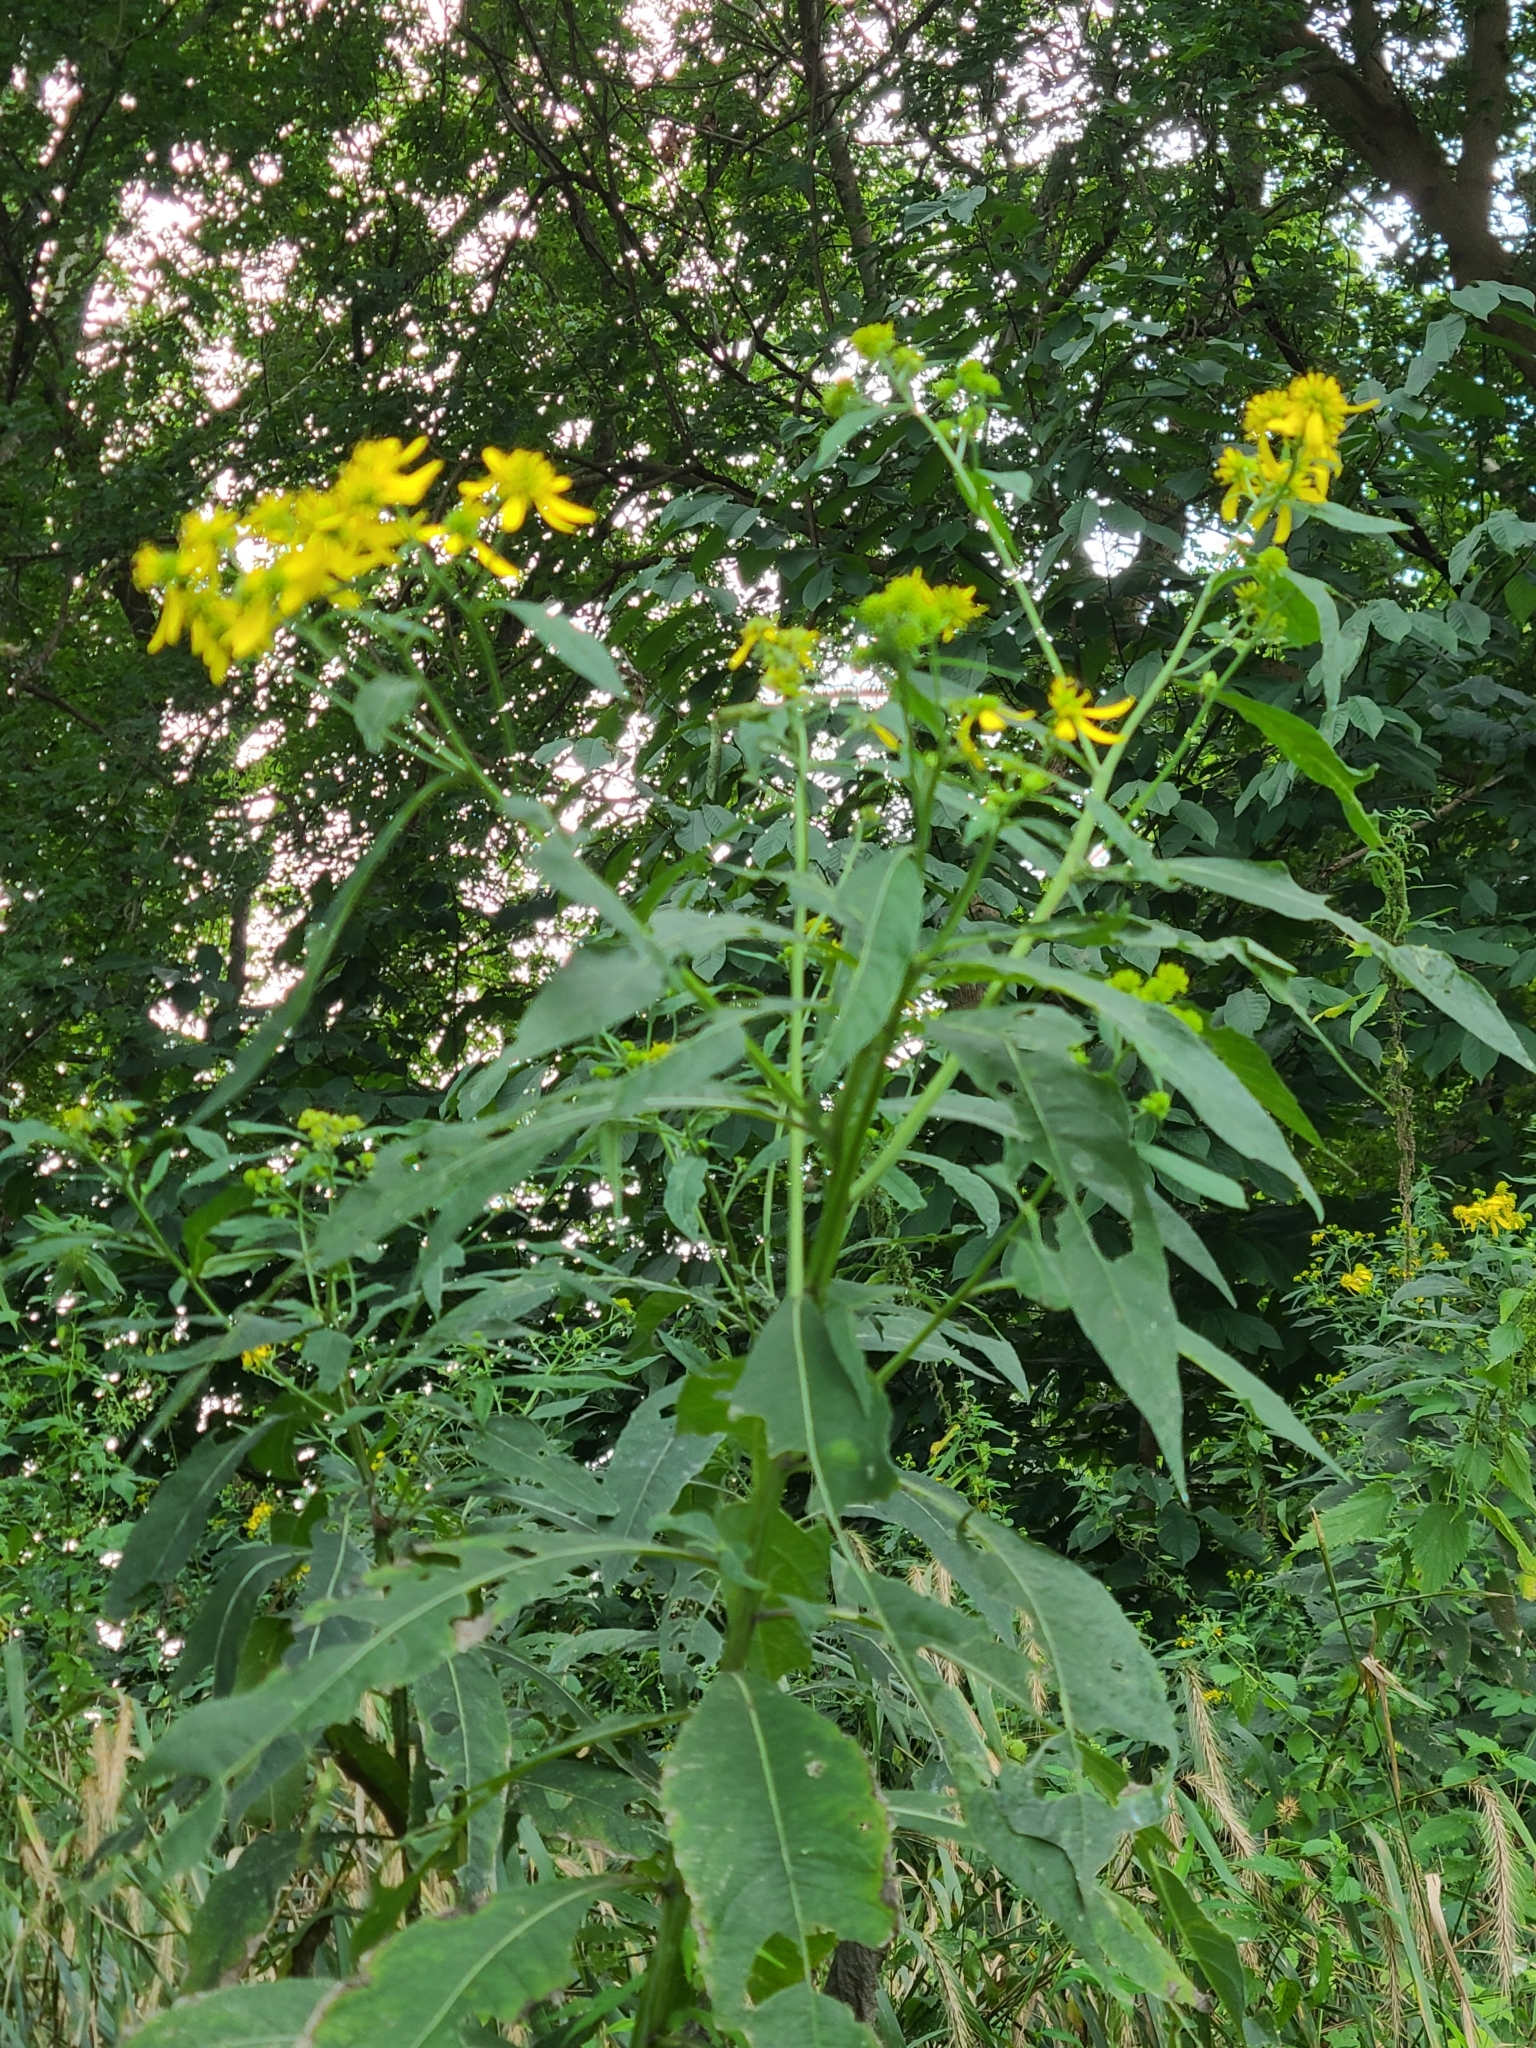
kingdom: Plantae
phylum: Tracheophyta
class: Magnoliopsida
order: Asterales
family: Asteraceae
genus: Verbesina
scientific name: Verbesina alternifolia
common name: Wingstem
